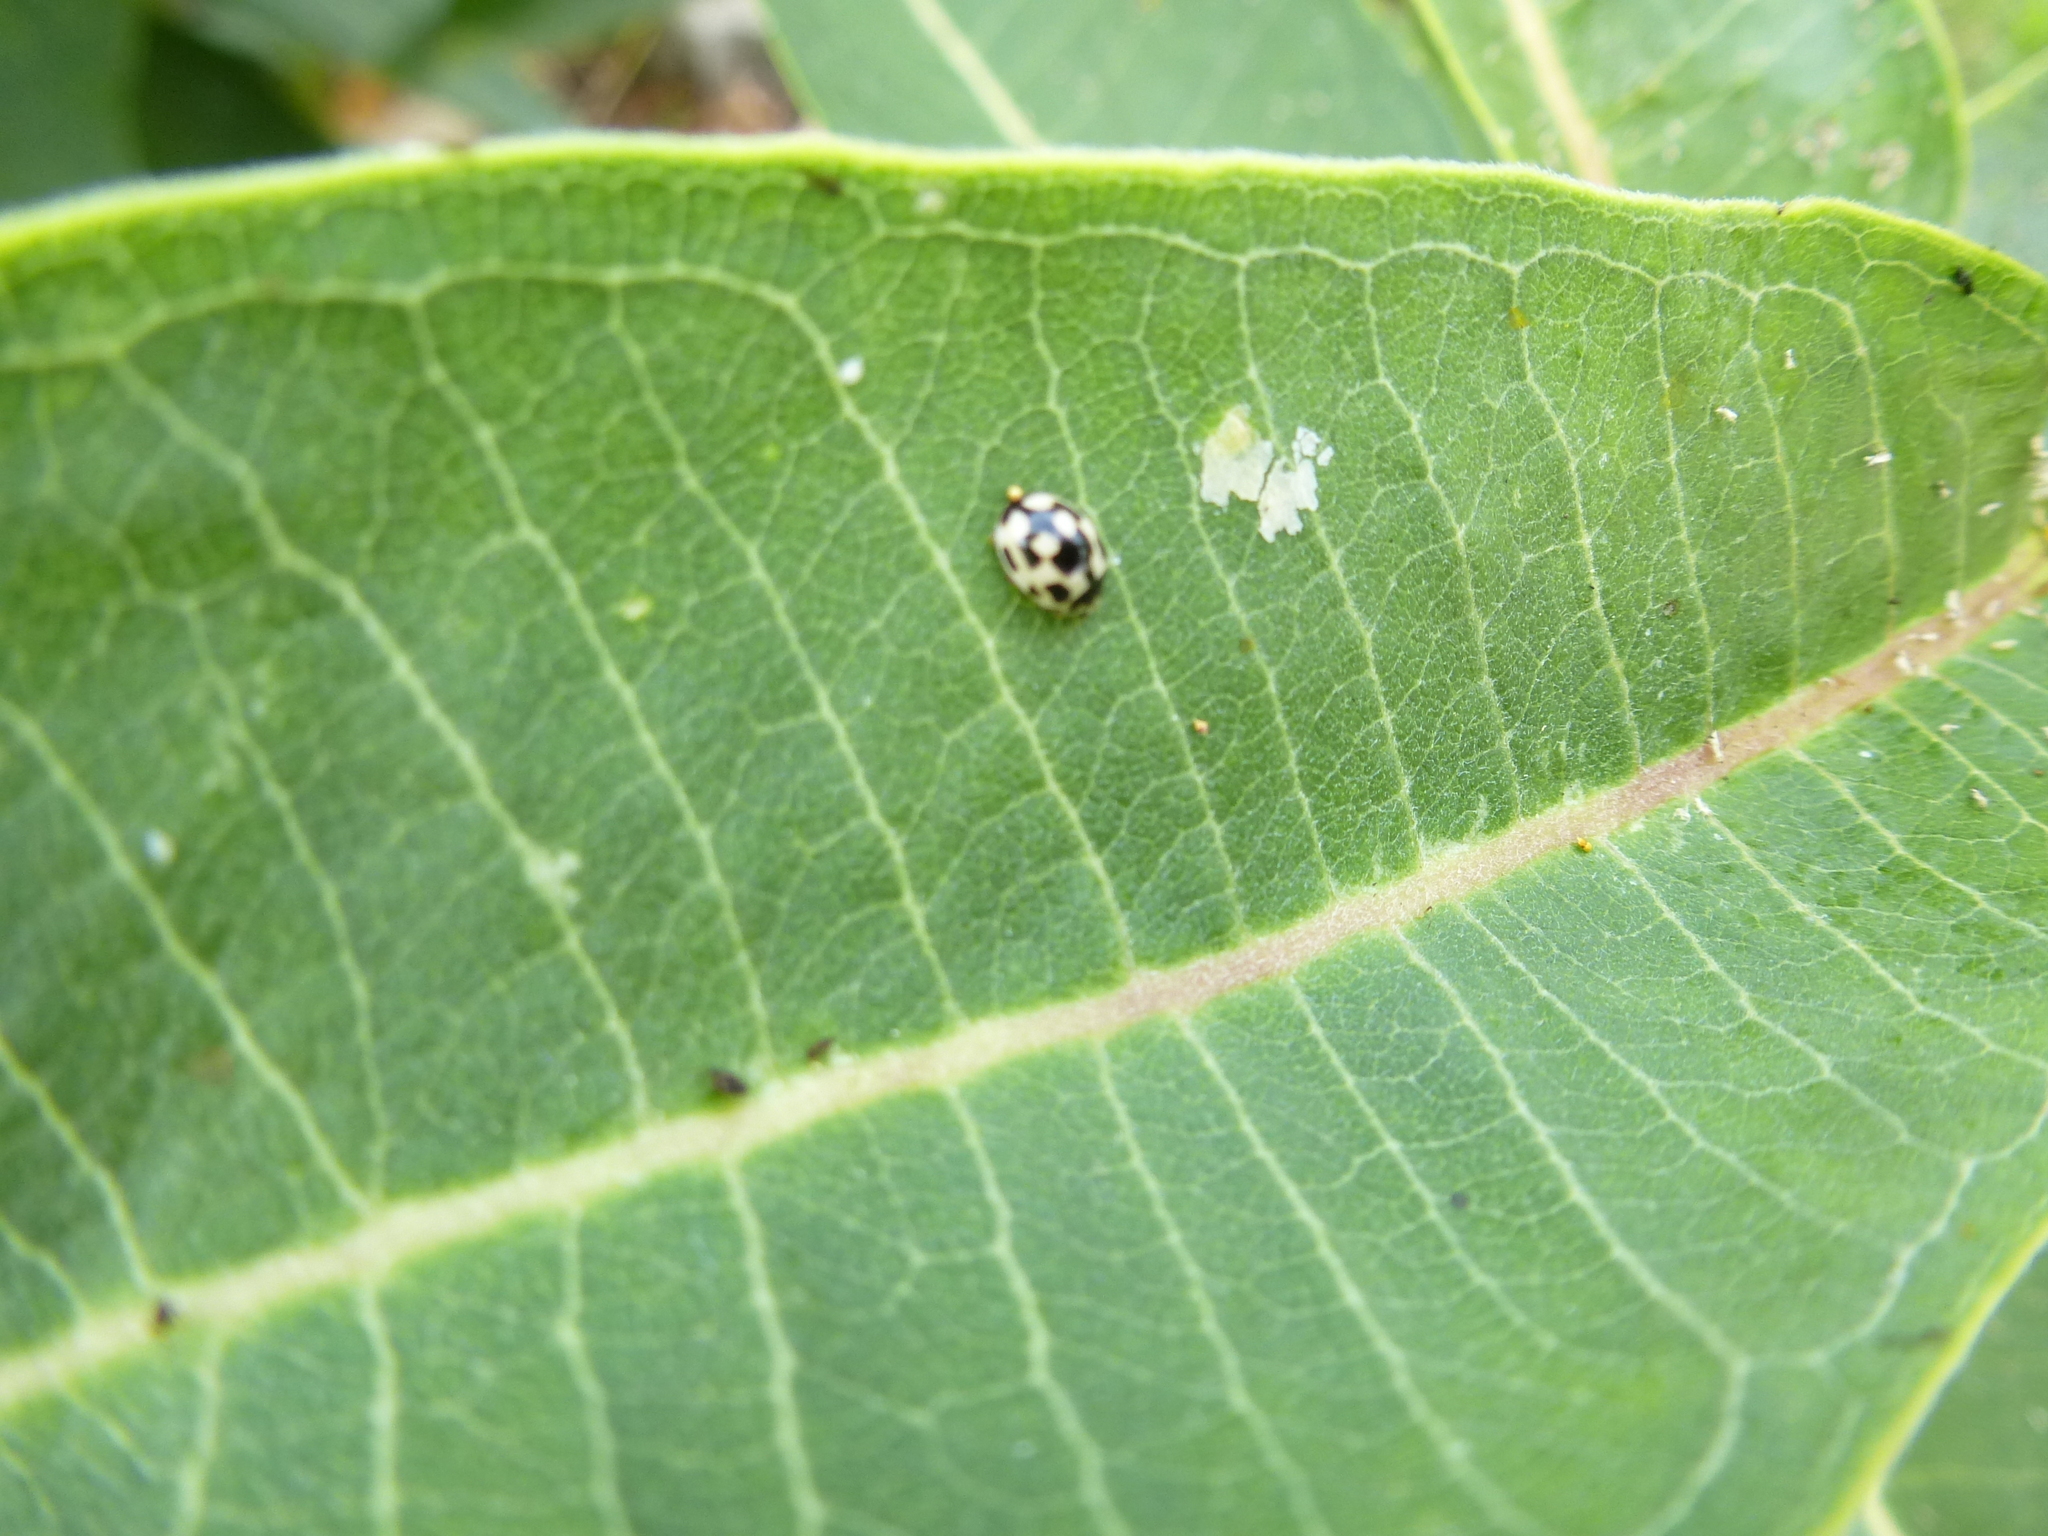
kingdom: Animalia
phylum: Arthropoda
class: Insecta
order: Coleoptera
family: Coccinellidae
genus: Propylaea
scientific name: Propylaea quatuordecimpunctata
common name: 14-spotted ladybird beetle
